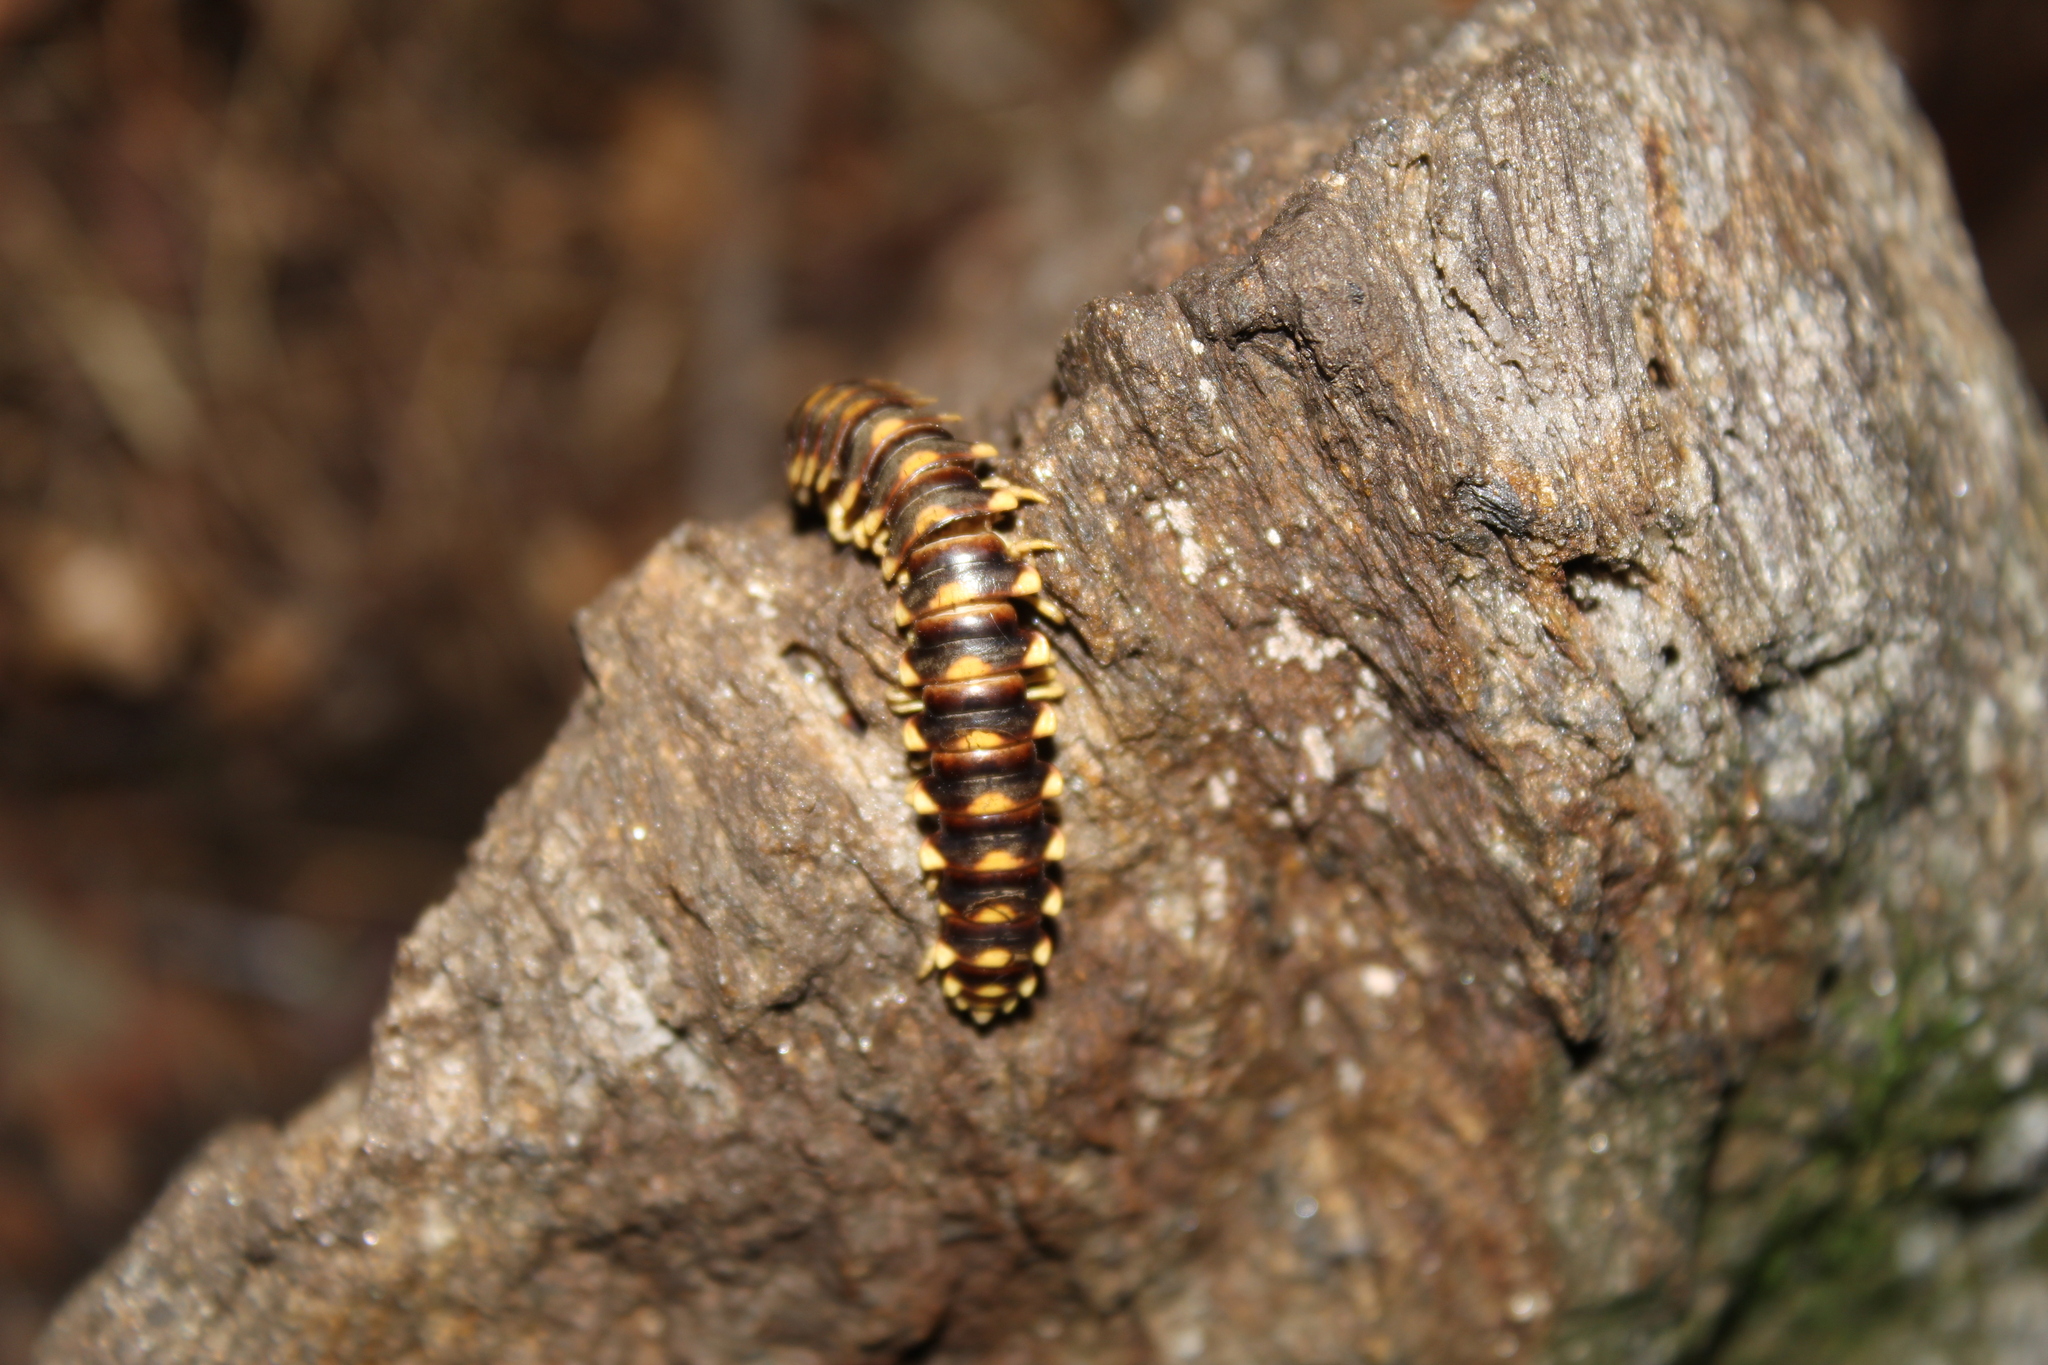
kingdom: Animalia
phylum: Arthropoda
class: Diplopoda
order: Polydesmida
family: Xystodesmidae
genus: Rudiloria
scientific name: Rudiloria trimaculata
